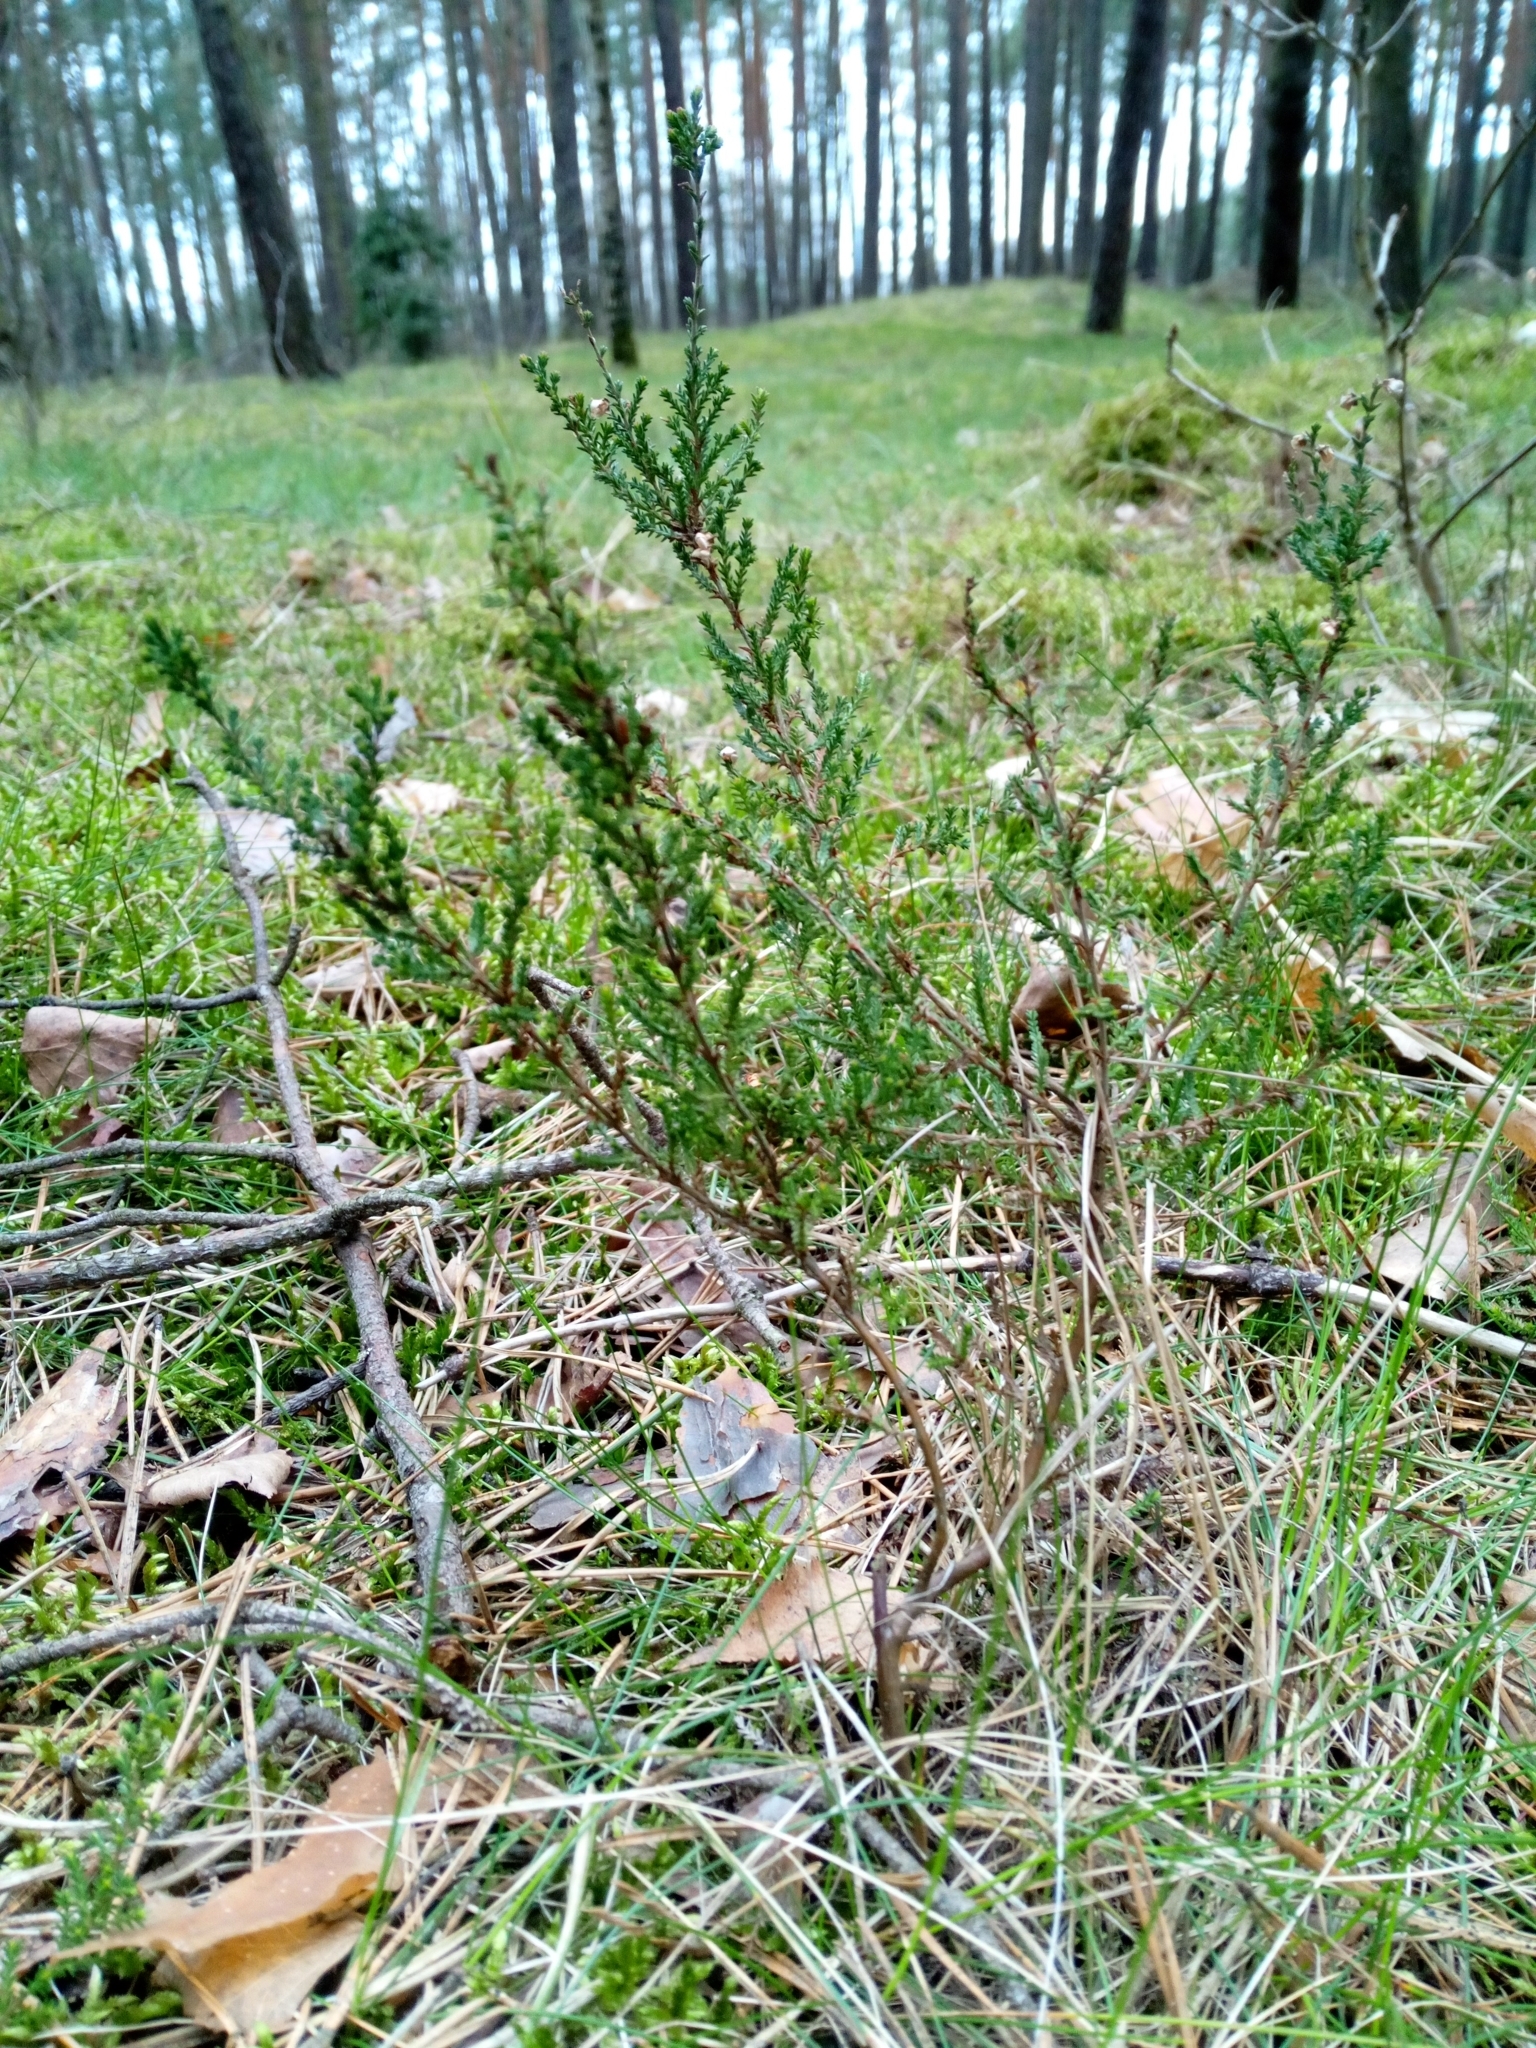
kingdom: Plantae
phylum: Tracheophyta
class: Magnoliopsida
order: Ericales
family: Ericaceae
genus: Calluna
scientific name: Calluna vulgaris
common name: Heather
